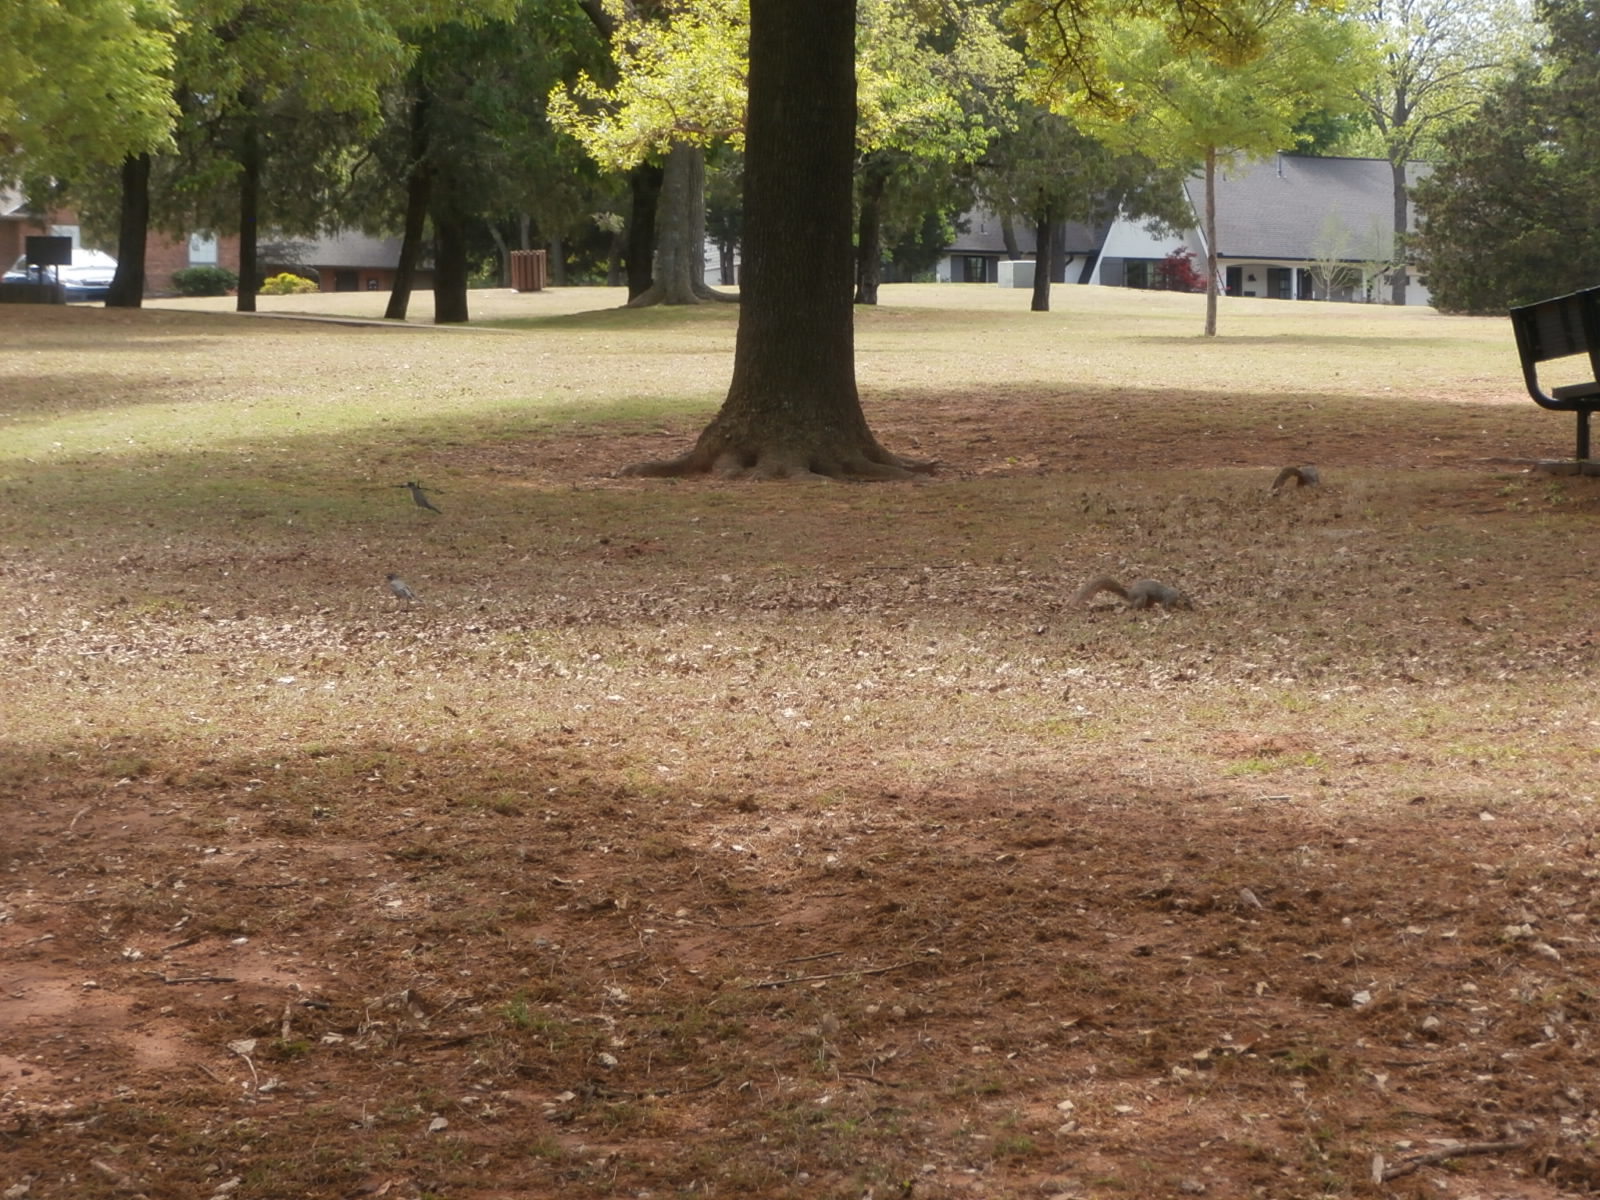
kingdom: Animalia
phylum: Chordata
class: Mammalia
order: Rodentia
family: Sciuridae
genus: Sciurus
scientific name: Sciurus niger
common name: Fox squirrel
